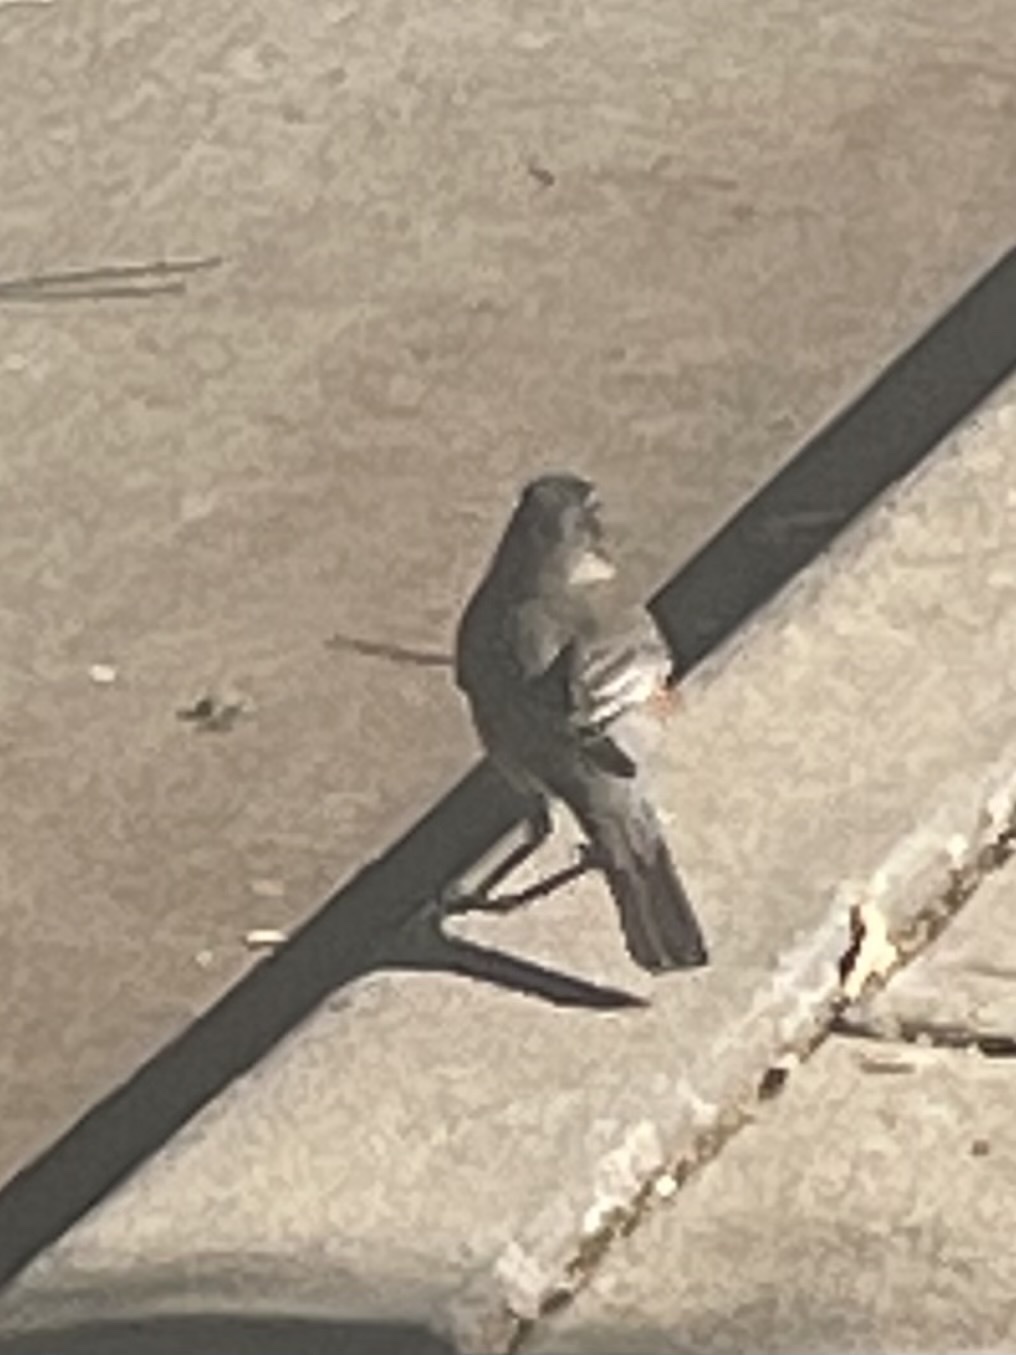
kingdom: Animalia
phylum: Chordata
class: Aves
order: Passeriformes
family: Turdidae
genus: Turdus
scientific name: Turdus migratorius
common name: American robin
